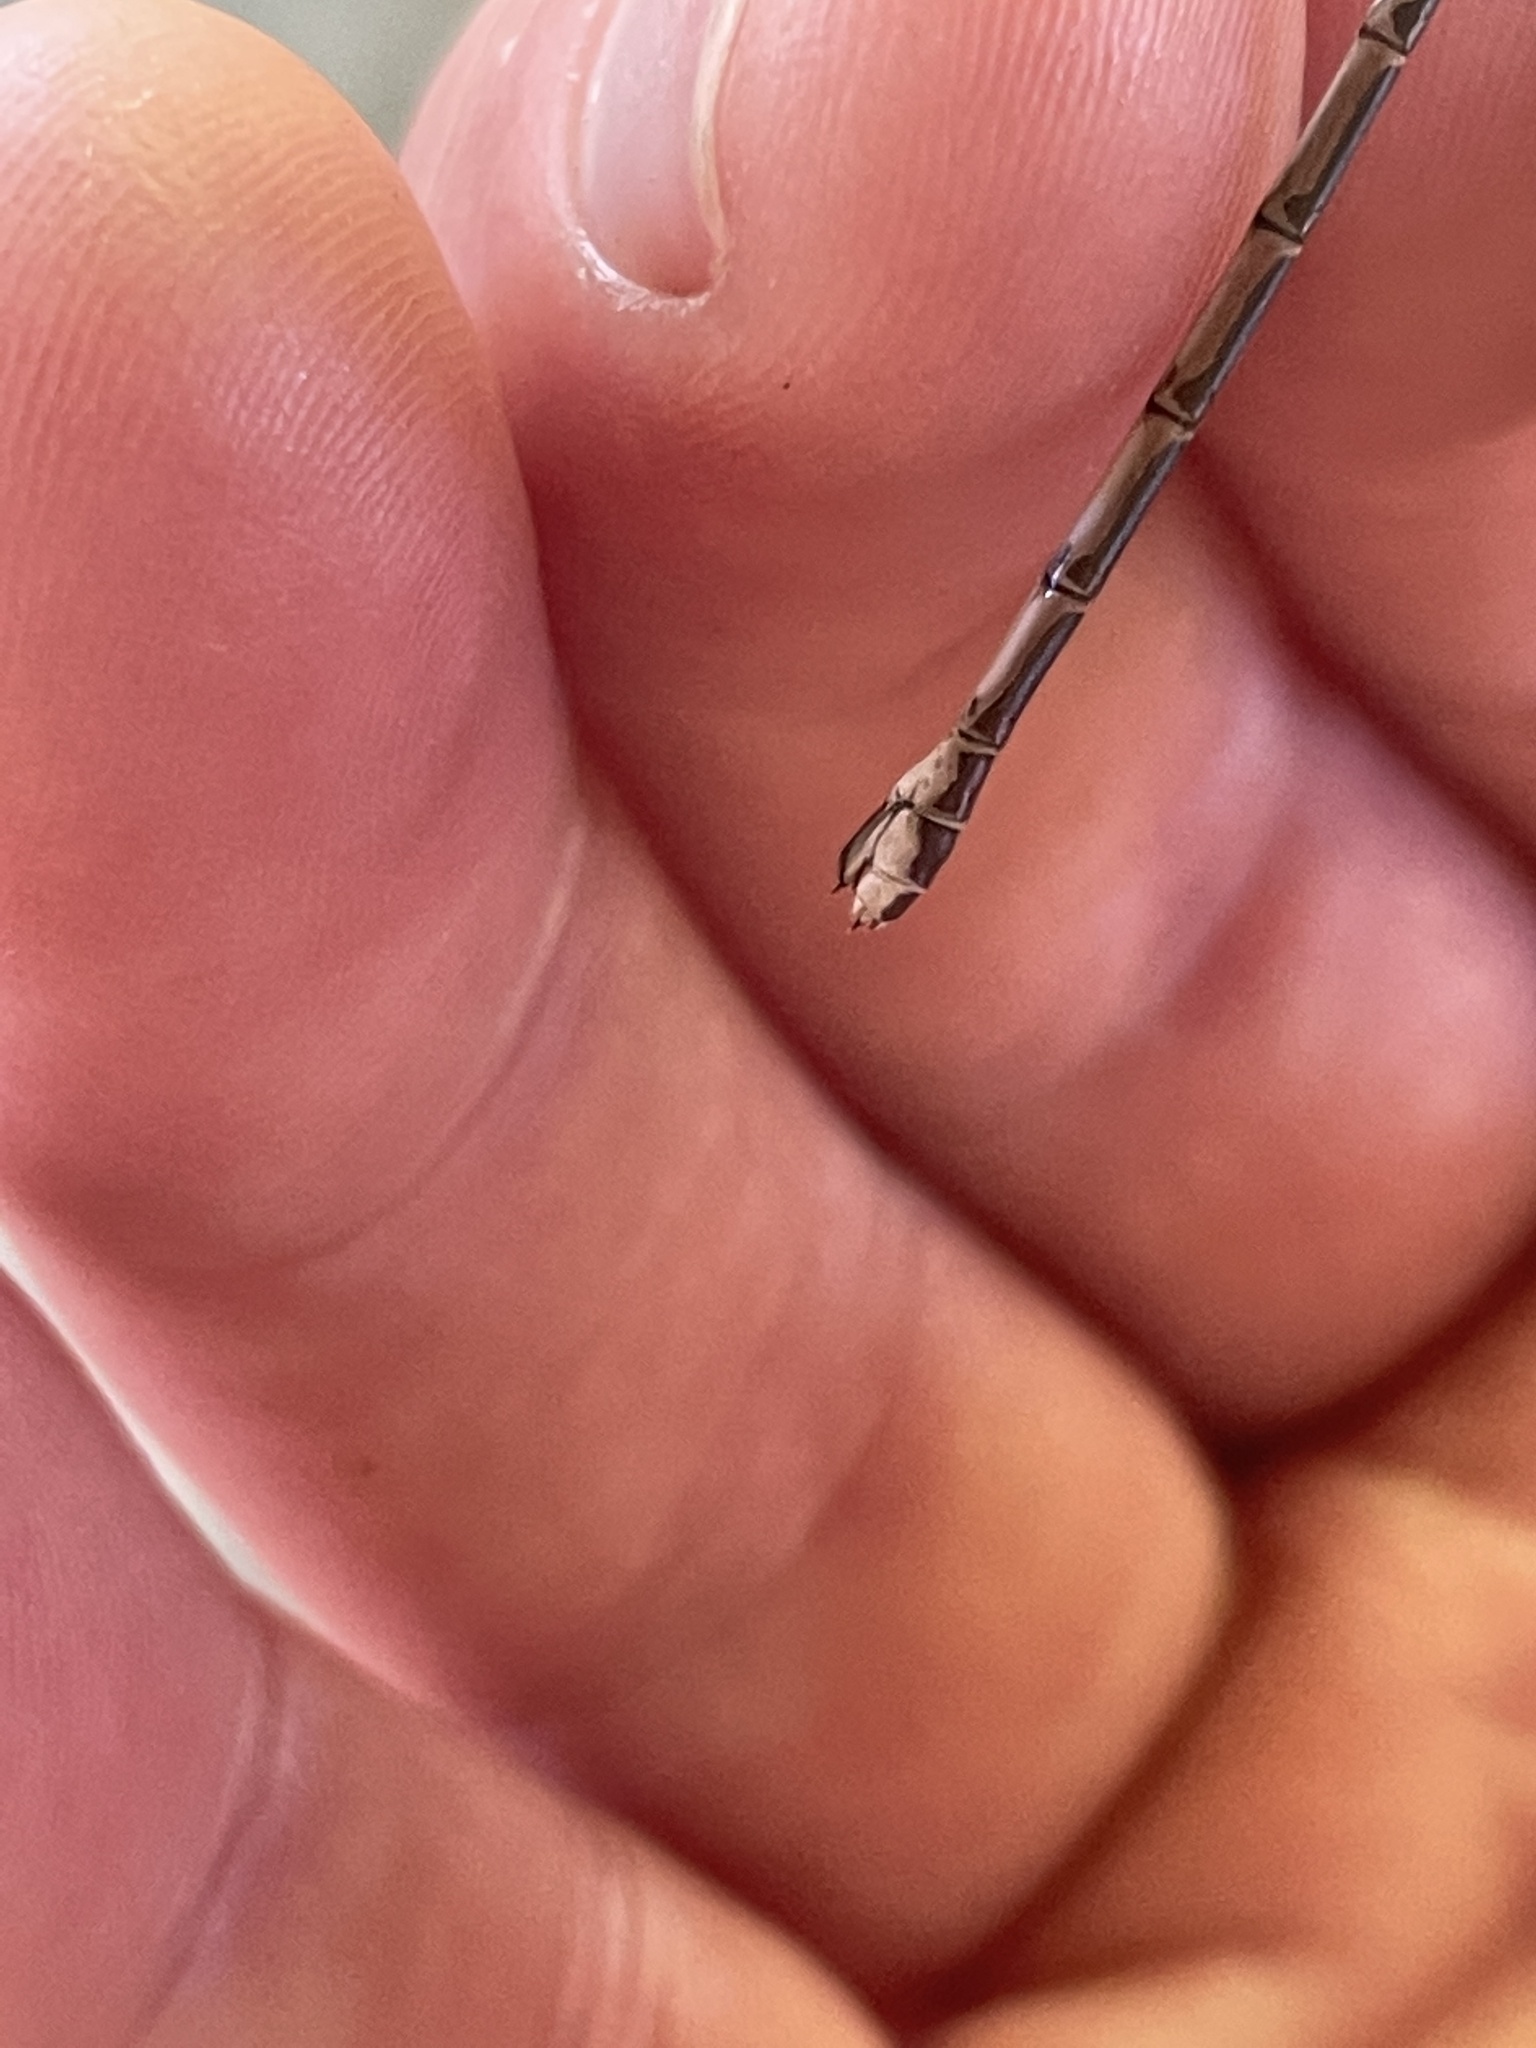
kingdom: Animalia
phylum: Arthropoda
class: Insecta
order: Odonata
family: Lestidae
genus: Lestes
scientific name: Lestes congener
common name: Spotted spreadwing
